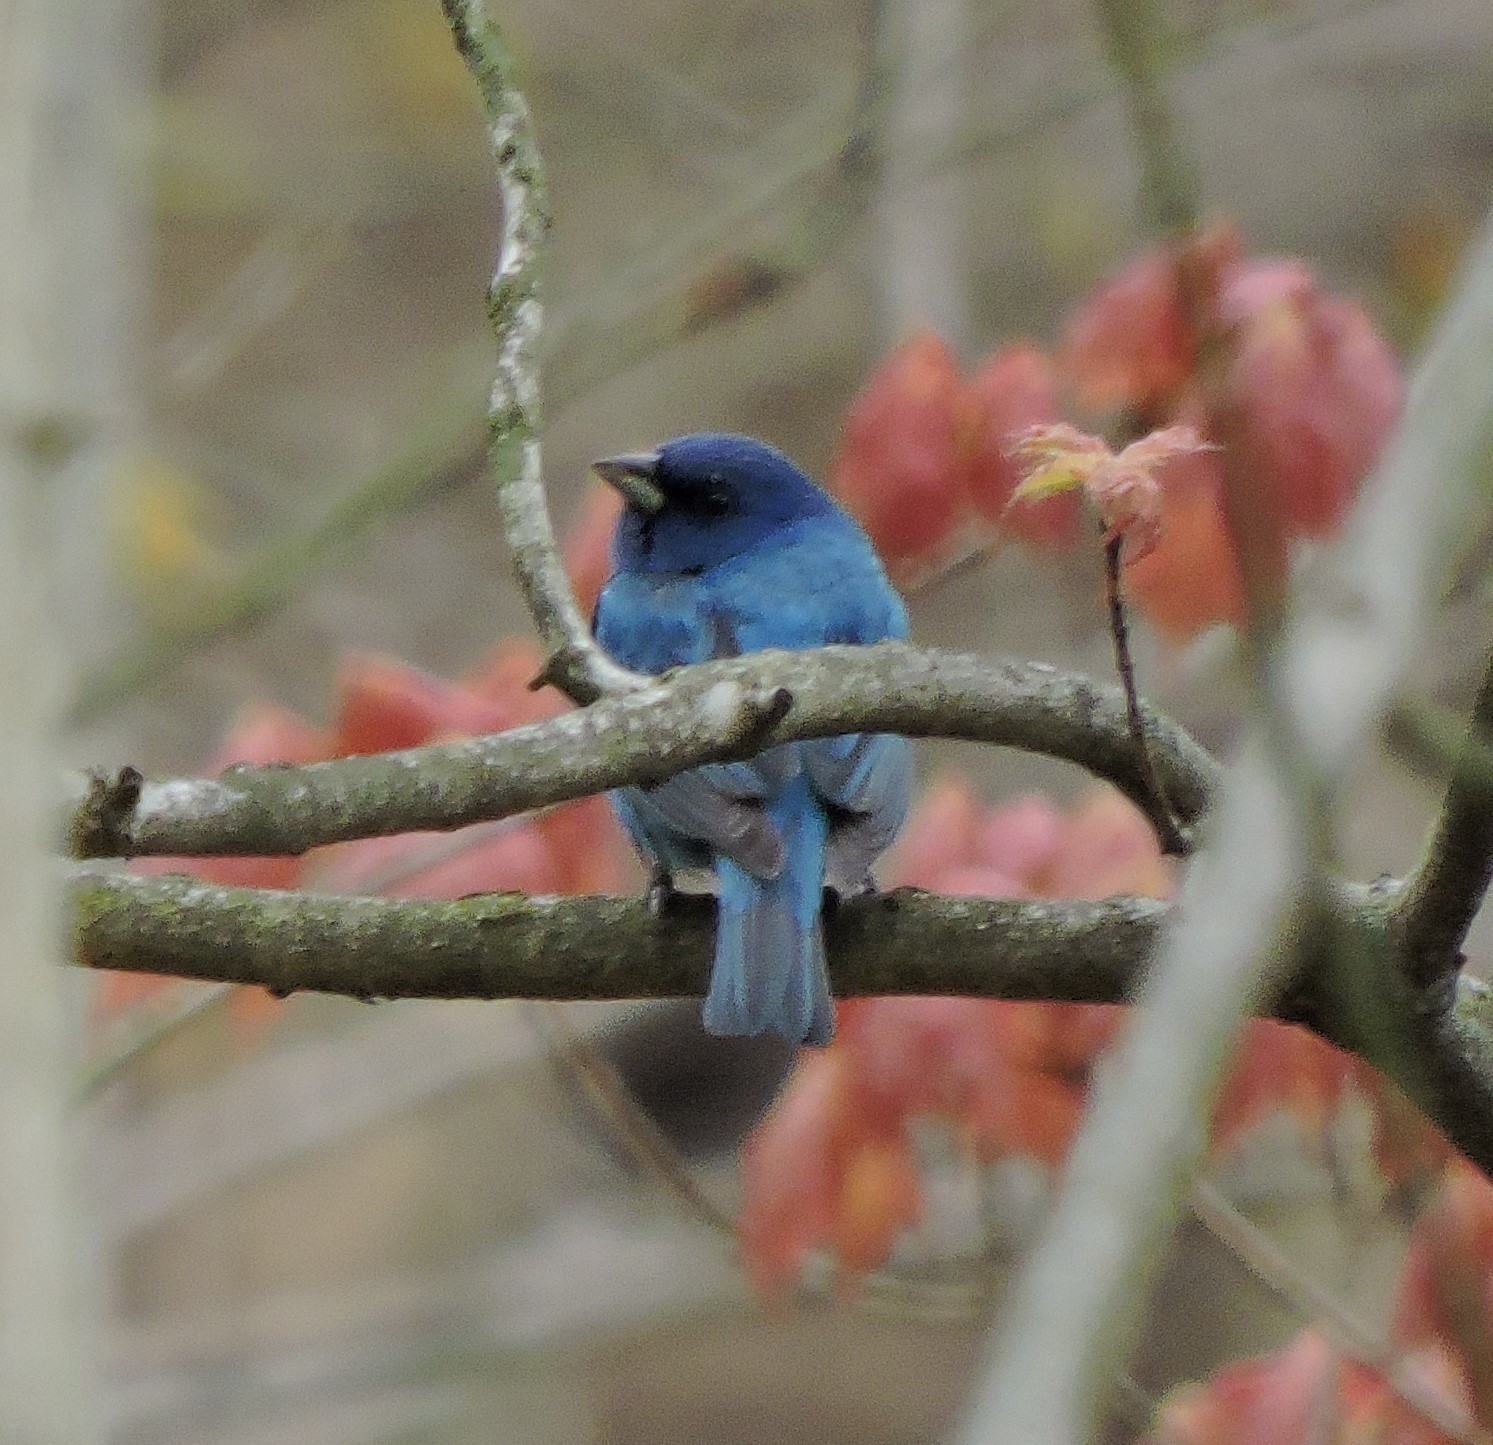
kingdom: Animalia
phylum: Chordata
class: Aves
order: Passeriformes
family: Cardinalidae
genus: Passerina
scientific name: Passerina cyanea
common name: Indigo bunting
